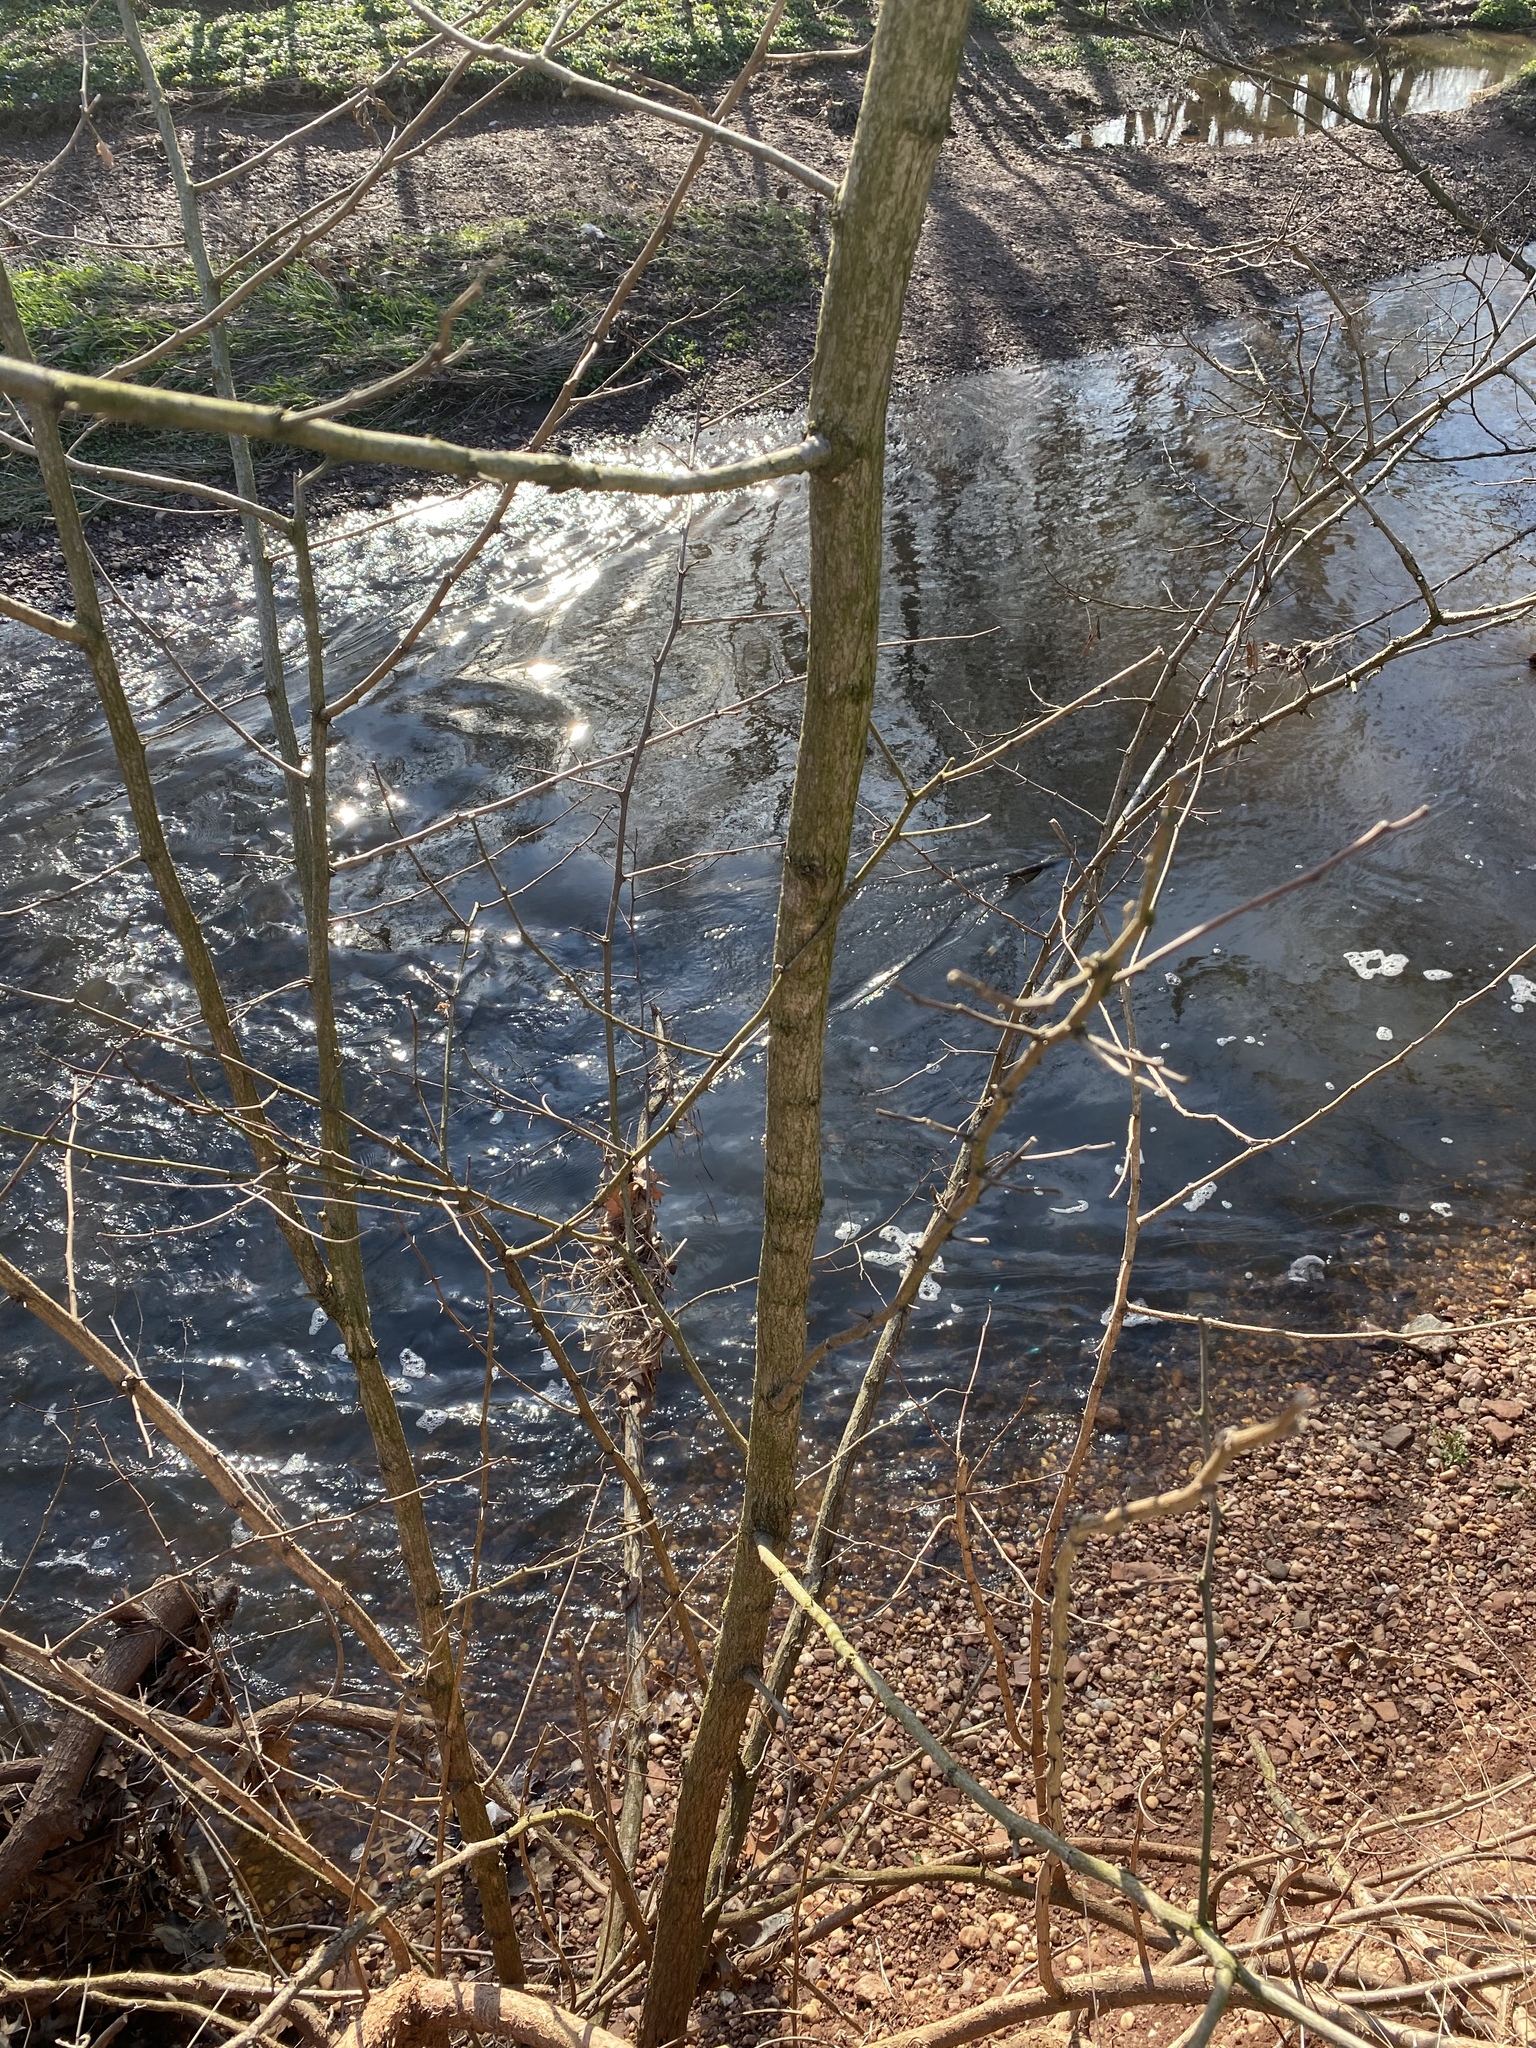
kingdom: Plantae
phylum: Tracheophyta
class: Magnoliopsida
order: Fabales
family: Fabaceae
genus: Robinia
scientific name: Robinia pseudoacacia
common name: Black locust
